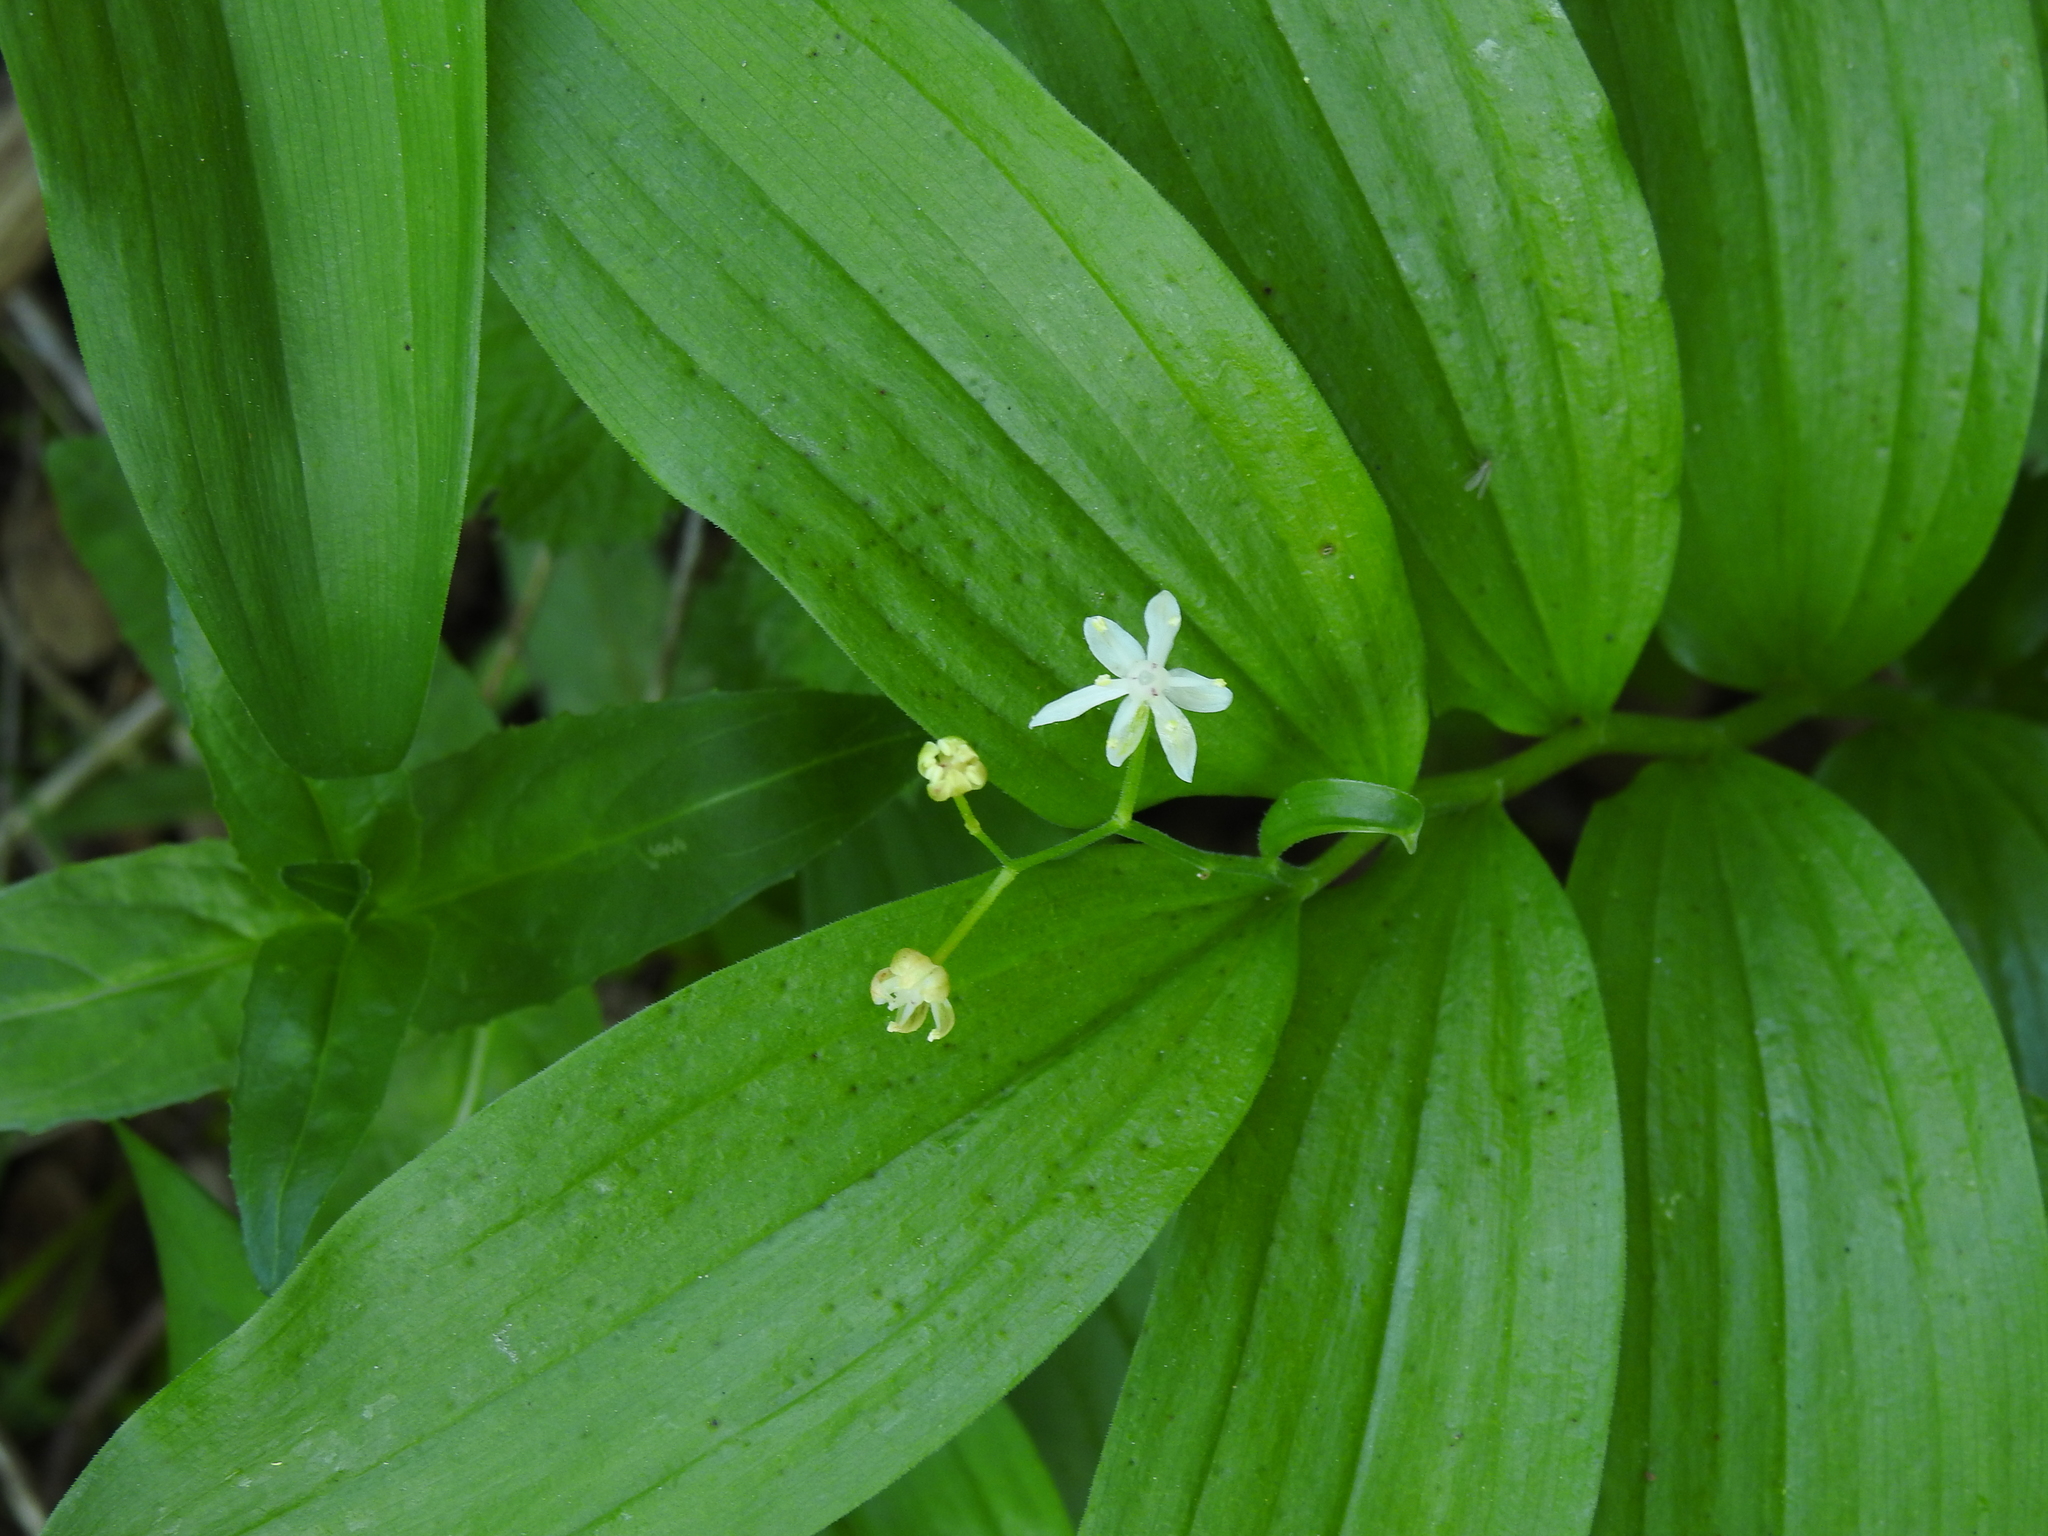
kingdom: Plantae
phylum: Tracheophyta
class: Liliopsida
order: Asparagales
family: Asparagaceae
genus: Maianthemum
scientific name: Maianthemum stellatum
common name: Little false solomon's seal
